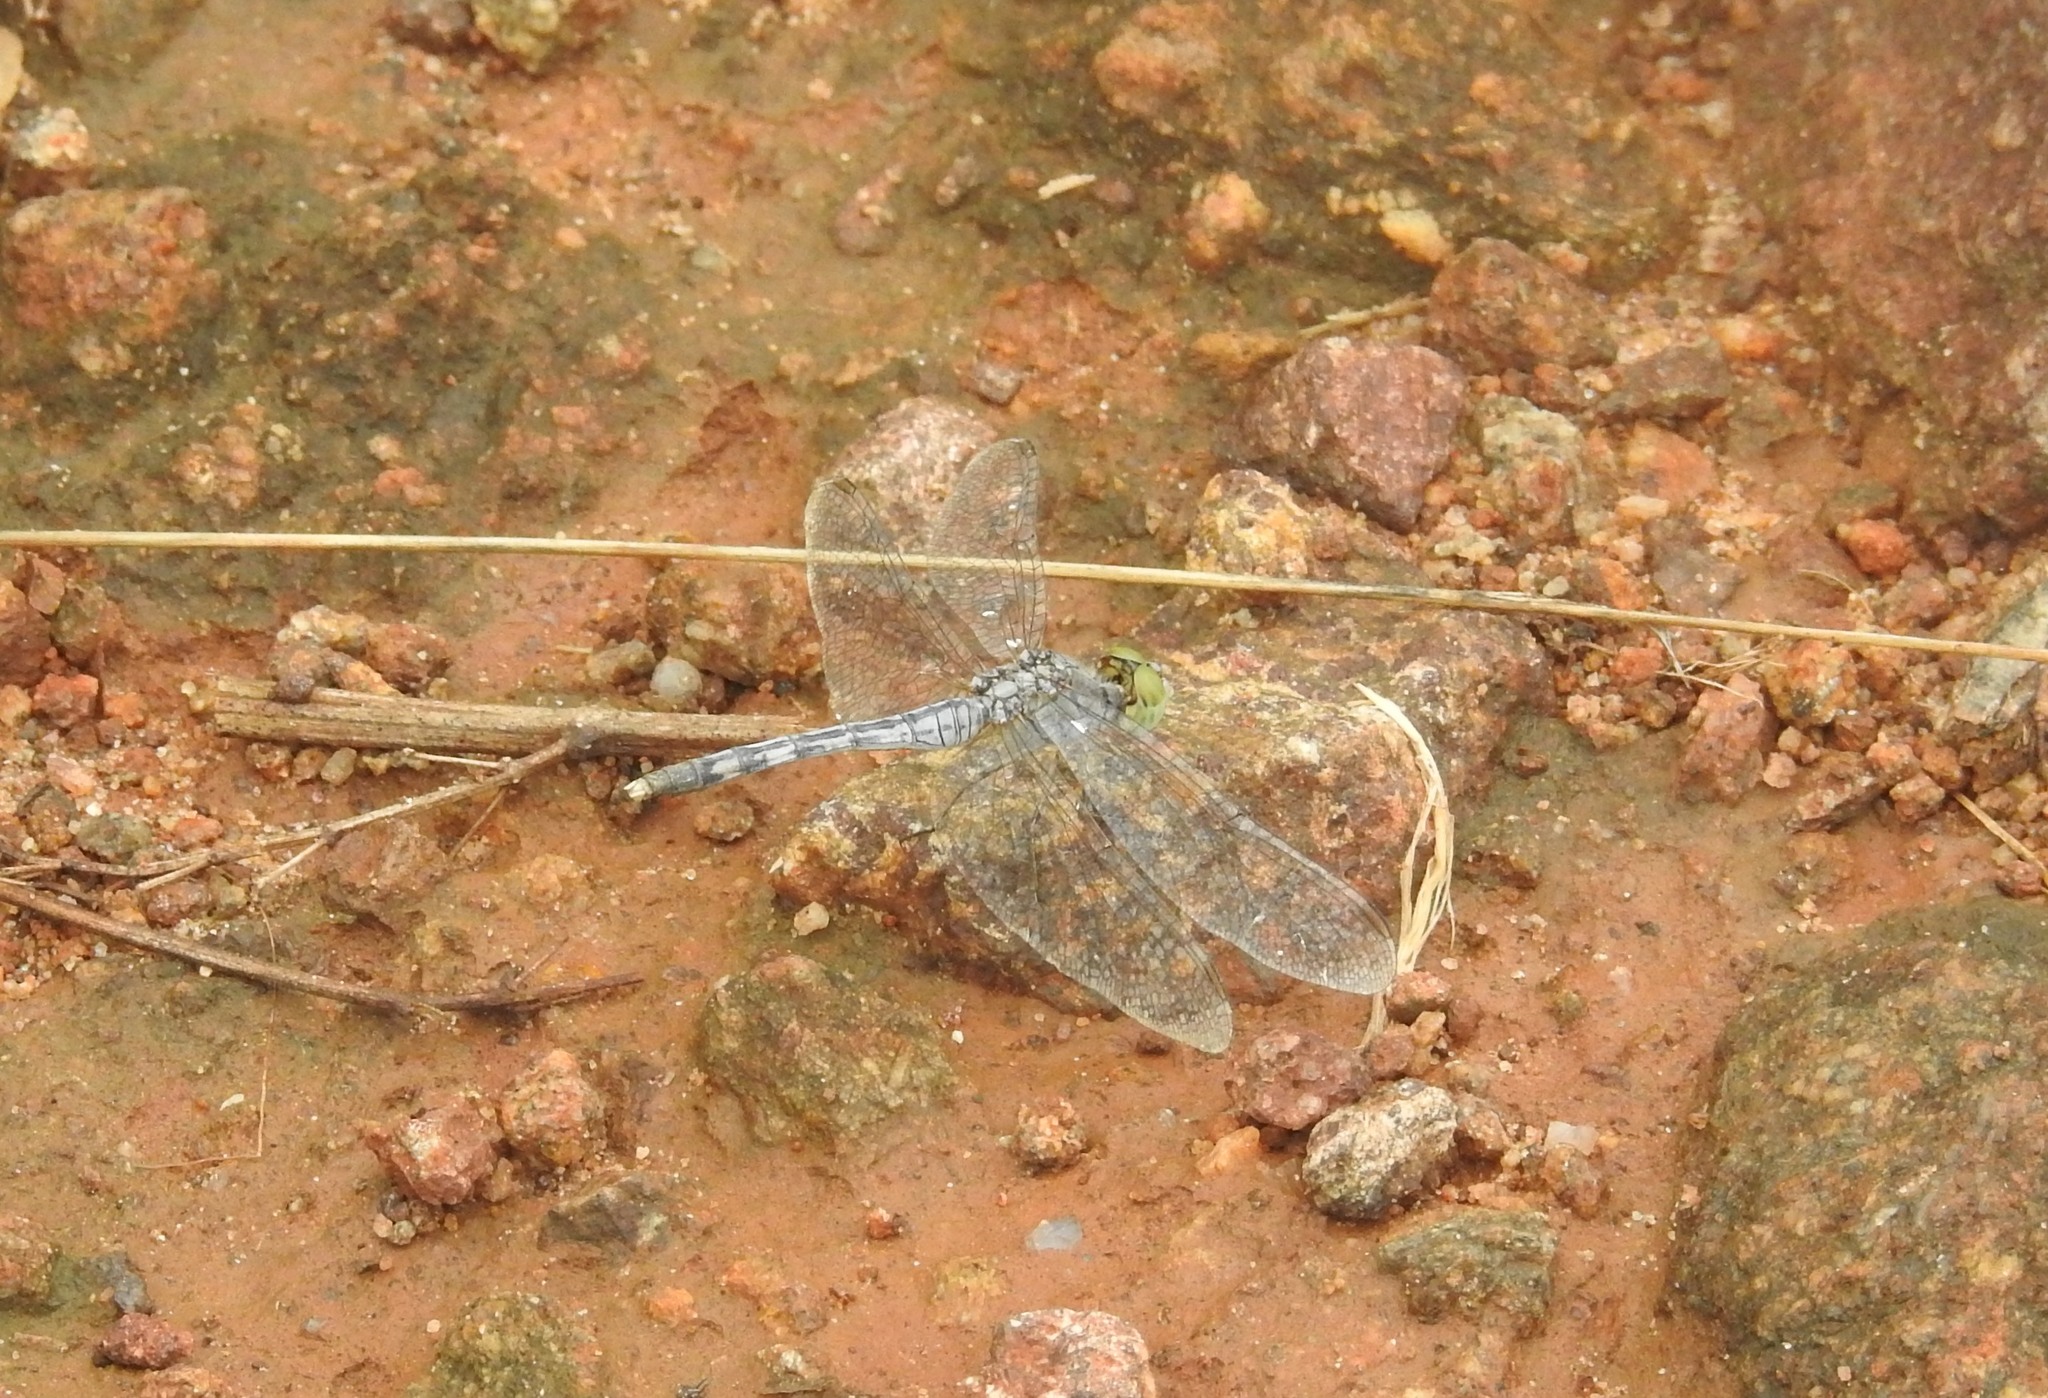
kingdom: Animalia
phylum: Arthropoda
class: Insecta
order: Odonata
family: Libellulidae
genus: Diplacodes
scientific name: Diplacodes trivialis
